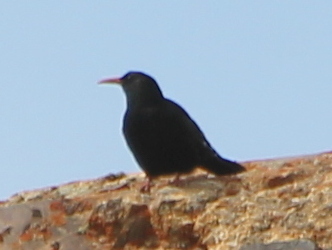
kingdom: Animalia
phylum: Chordata
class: Aves
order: Passeriformes
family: Corvidae
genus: Pyrrhocorax
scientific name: Pyrrhocorax pyrrhocorax
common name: Red-billed chough
